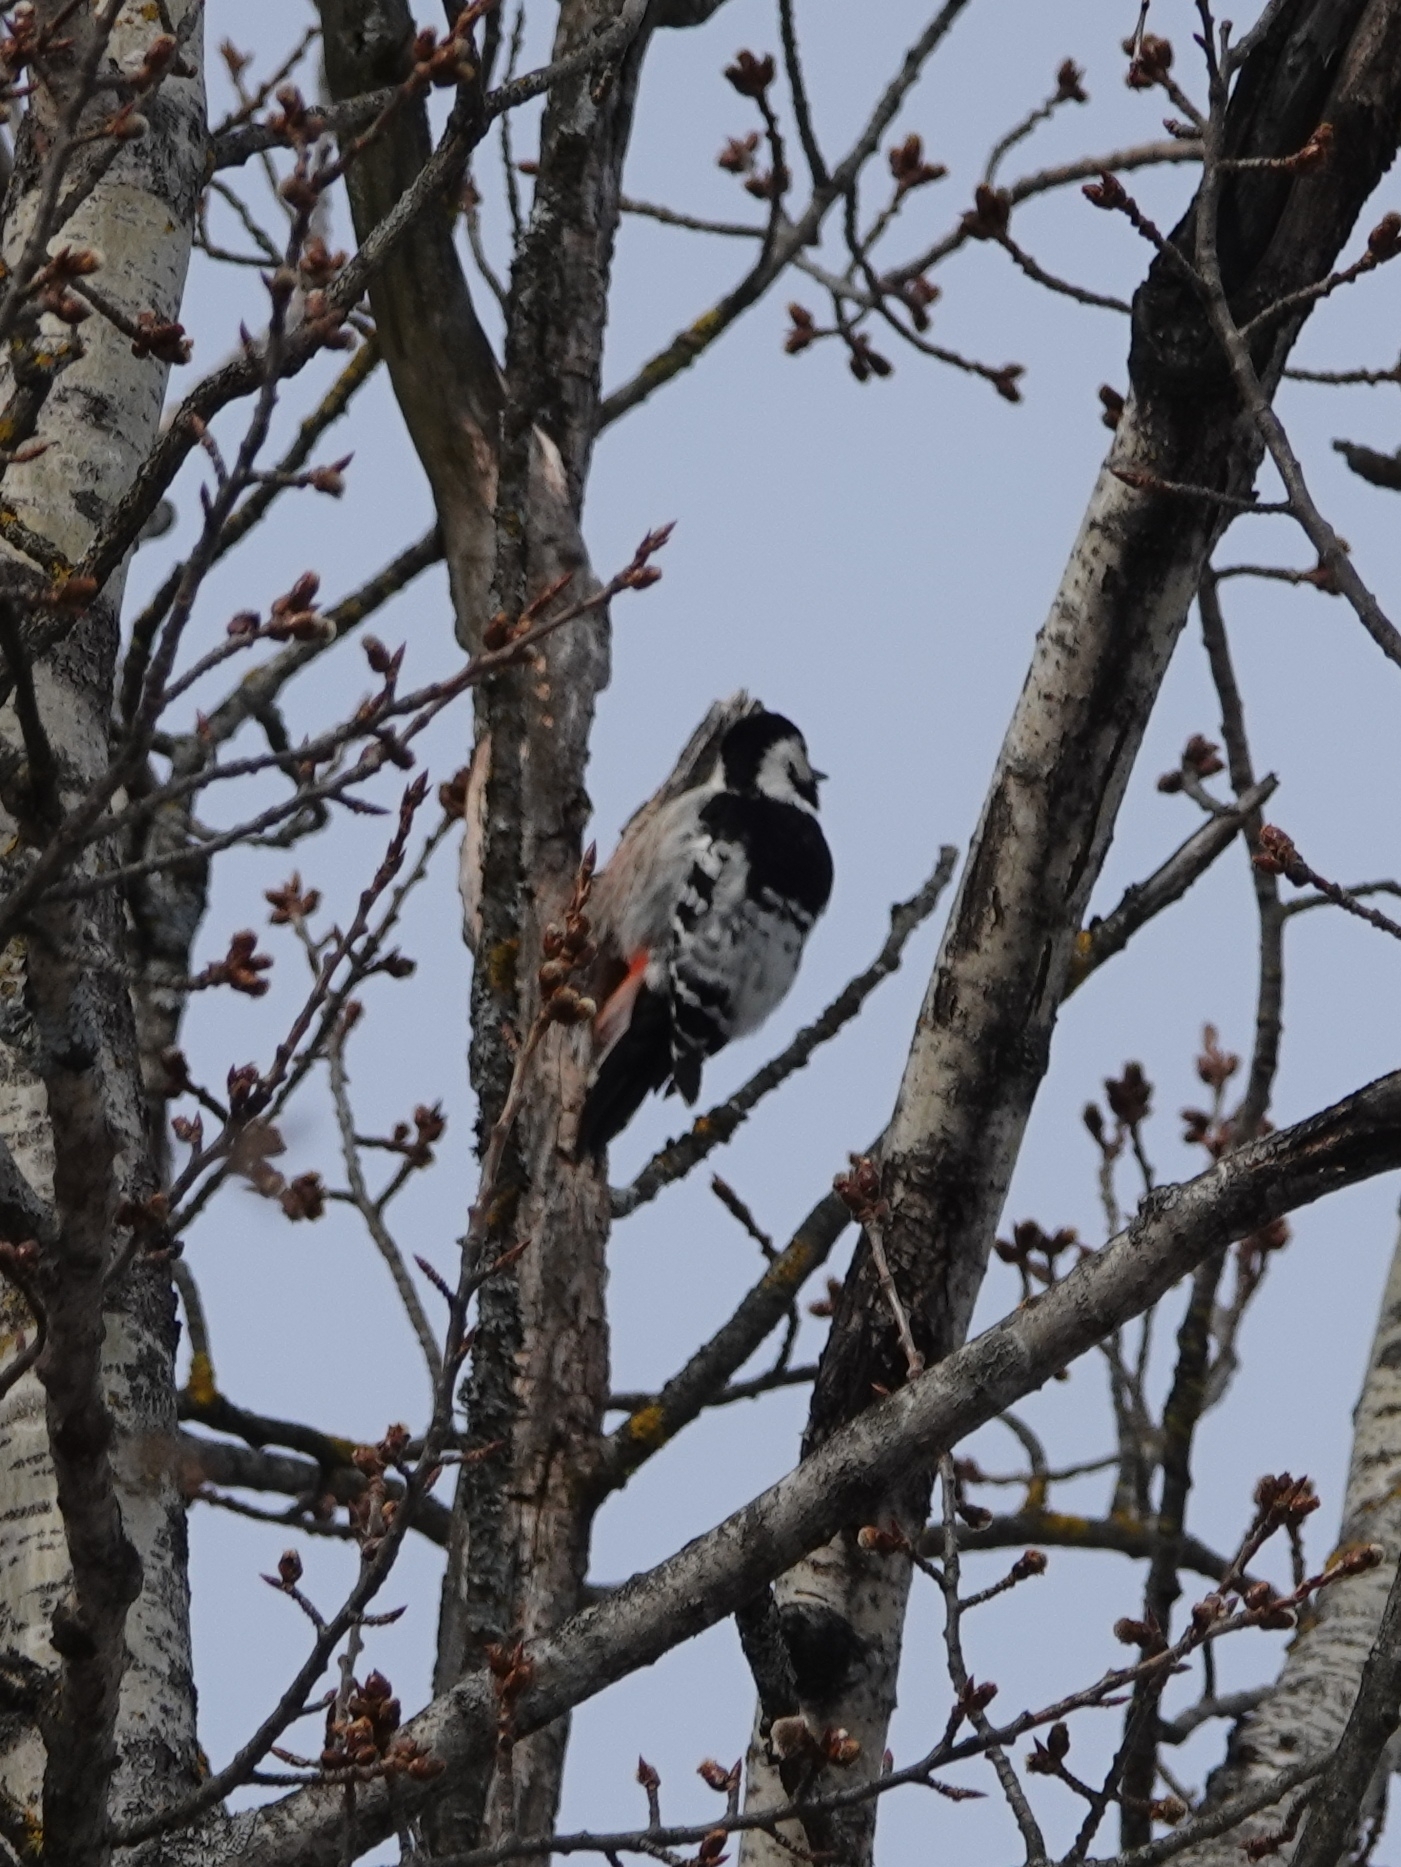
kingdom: Animalia
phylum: Chordata
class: Aves
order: Piciformes
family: Picidae
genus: Dendrocopos
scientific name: Dendrocopos leucotos
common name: White-backed woodpecker
